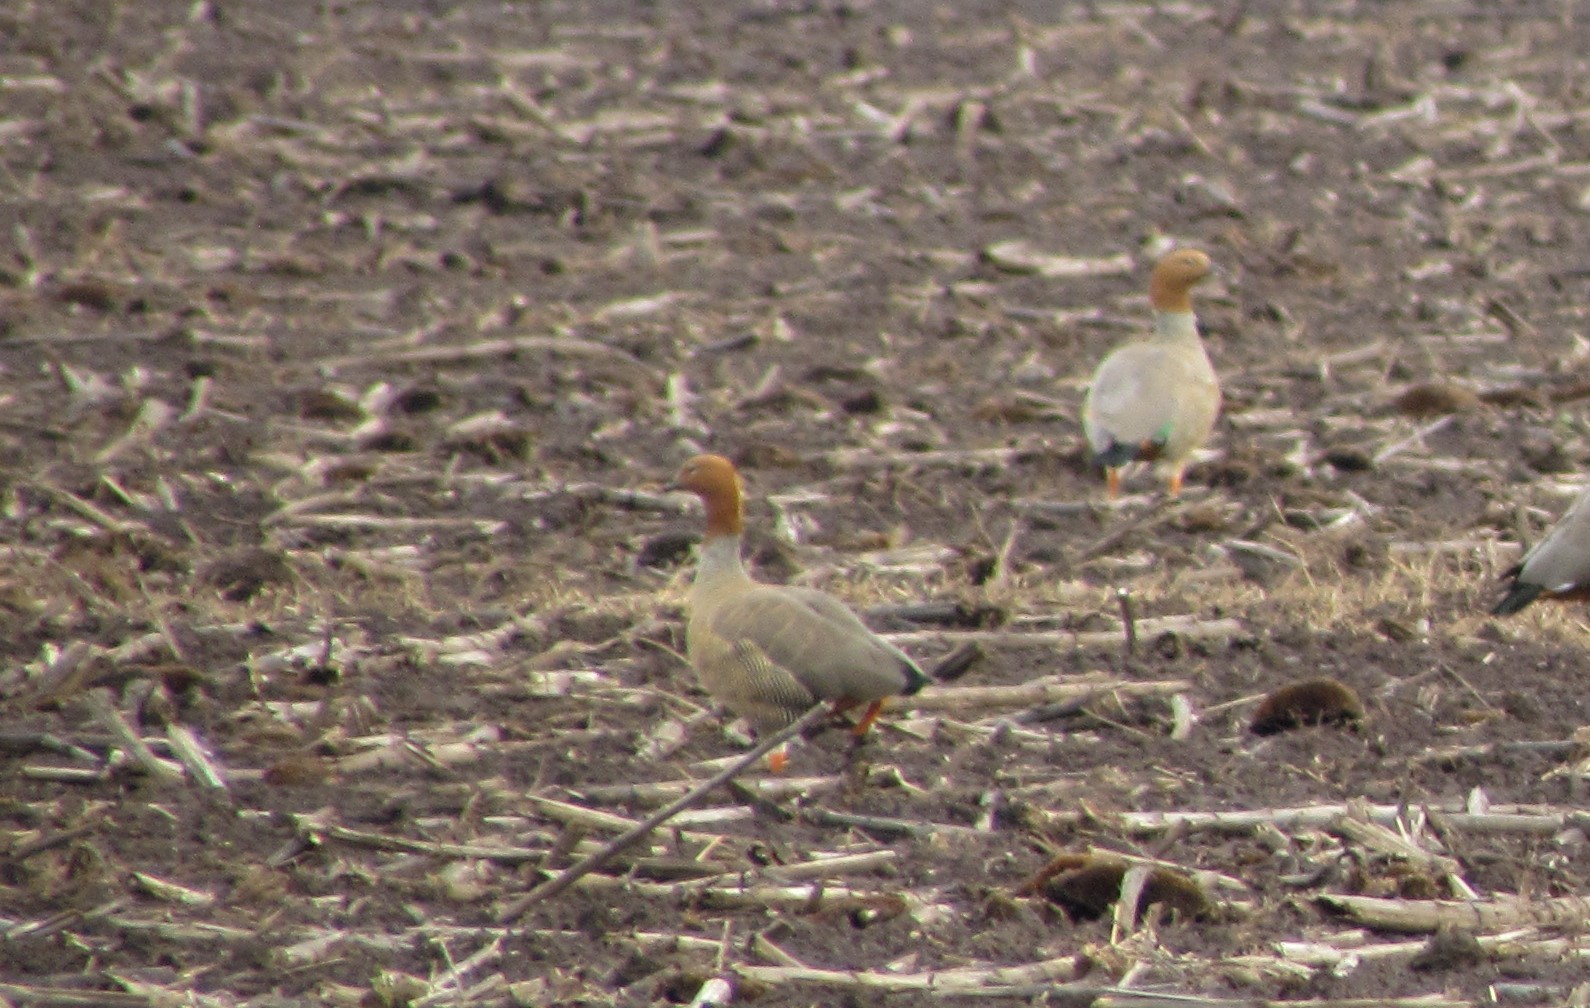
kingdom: Animalia
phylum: Chordata
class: Aves
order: Anseriformes
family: Anatidae
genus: Chloephaga
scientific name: Chloephaga rubidiceps
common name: Ruddy-headed goose
